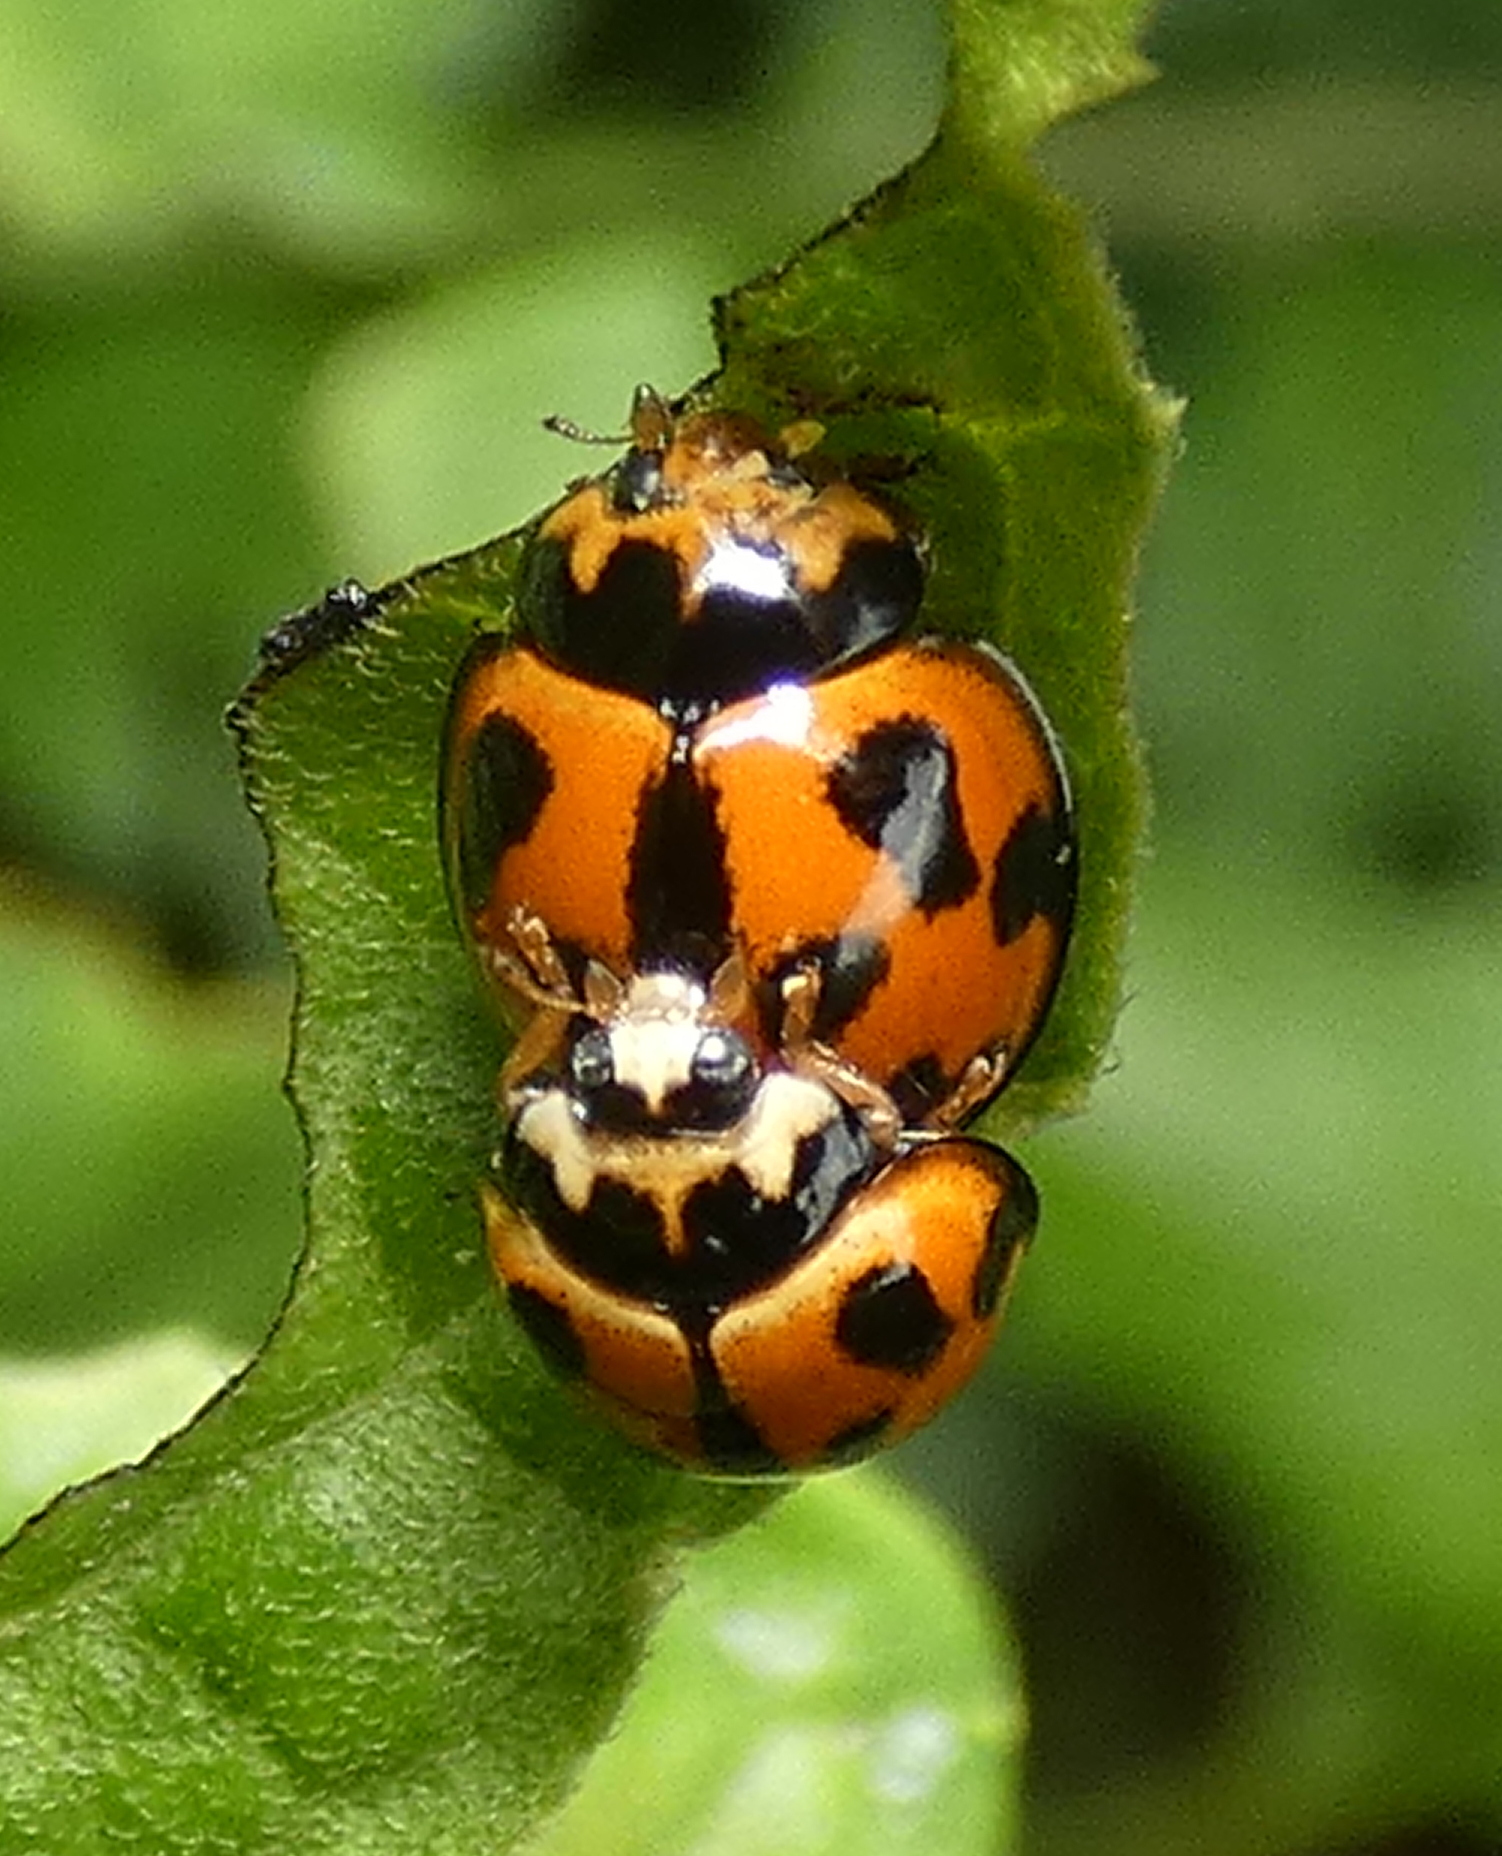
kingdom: Animalia
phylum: Arthropoda
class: Insecta
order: Coleoptera
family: Coccinellidae
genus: Coelophora
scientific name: Coelophora inaequalis
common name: Common australian lady beetle
